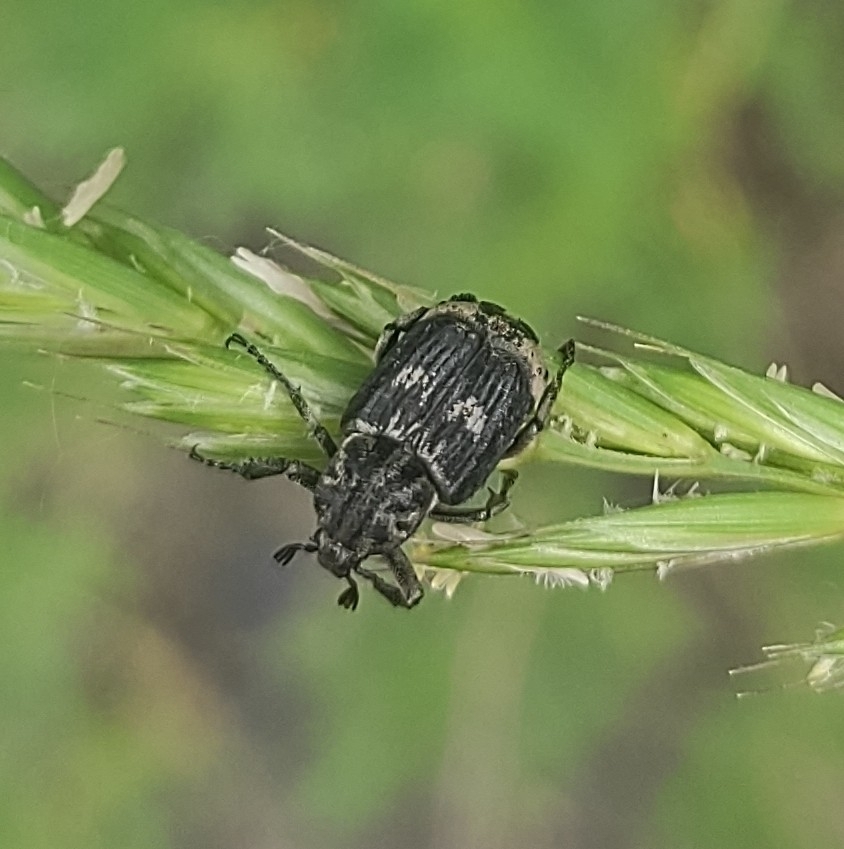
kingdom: Animalia
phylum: Arthropoda
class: Insecta
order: Coleoptera
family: Scarabaeidae
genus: Valgus
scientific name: Valgus hemipterus
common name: Bug flower chafer
